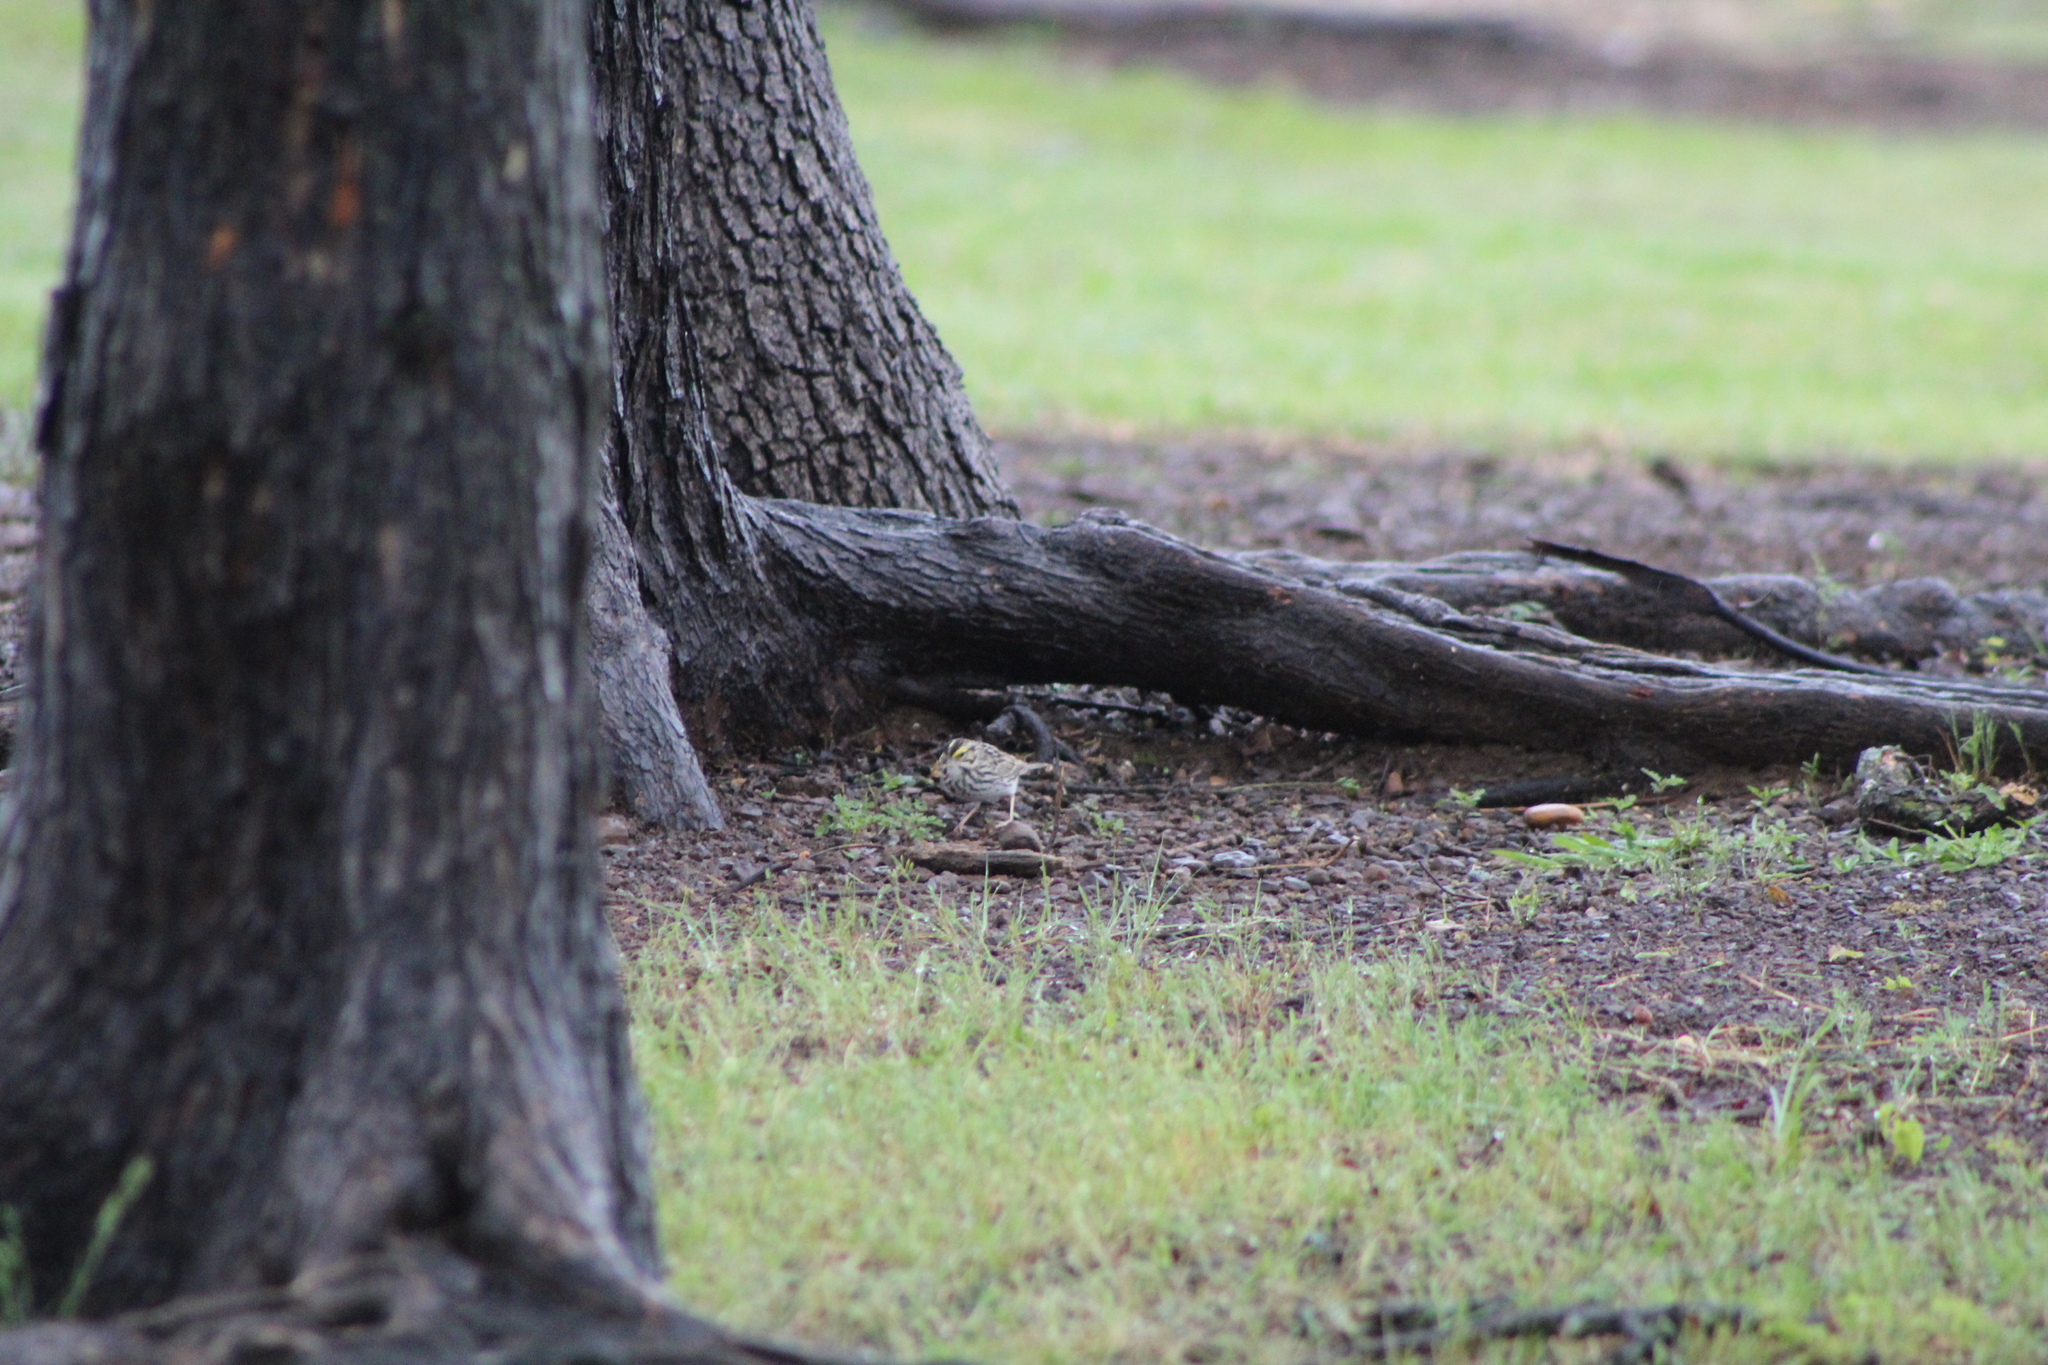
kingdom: Animalia
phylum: Chordata
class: Aves
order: Passeriformes
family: Passerellidae
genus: Passerculus
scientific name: Passerculus sandwichensis
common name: Savannah sparrow
